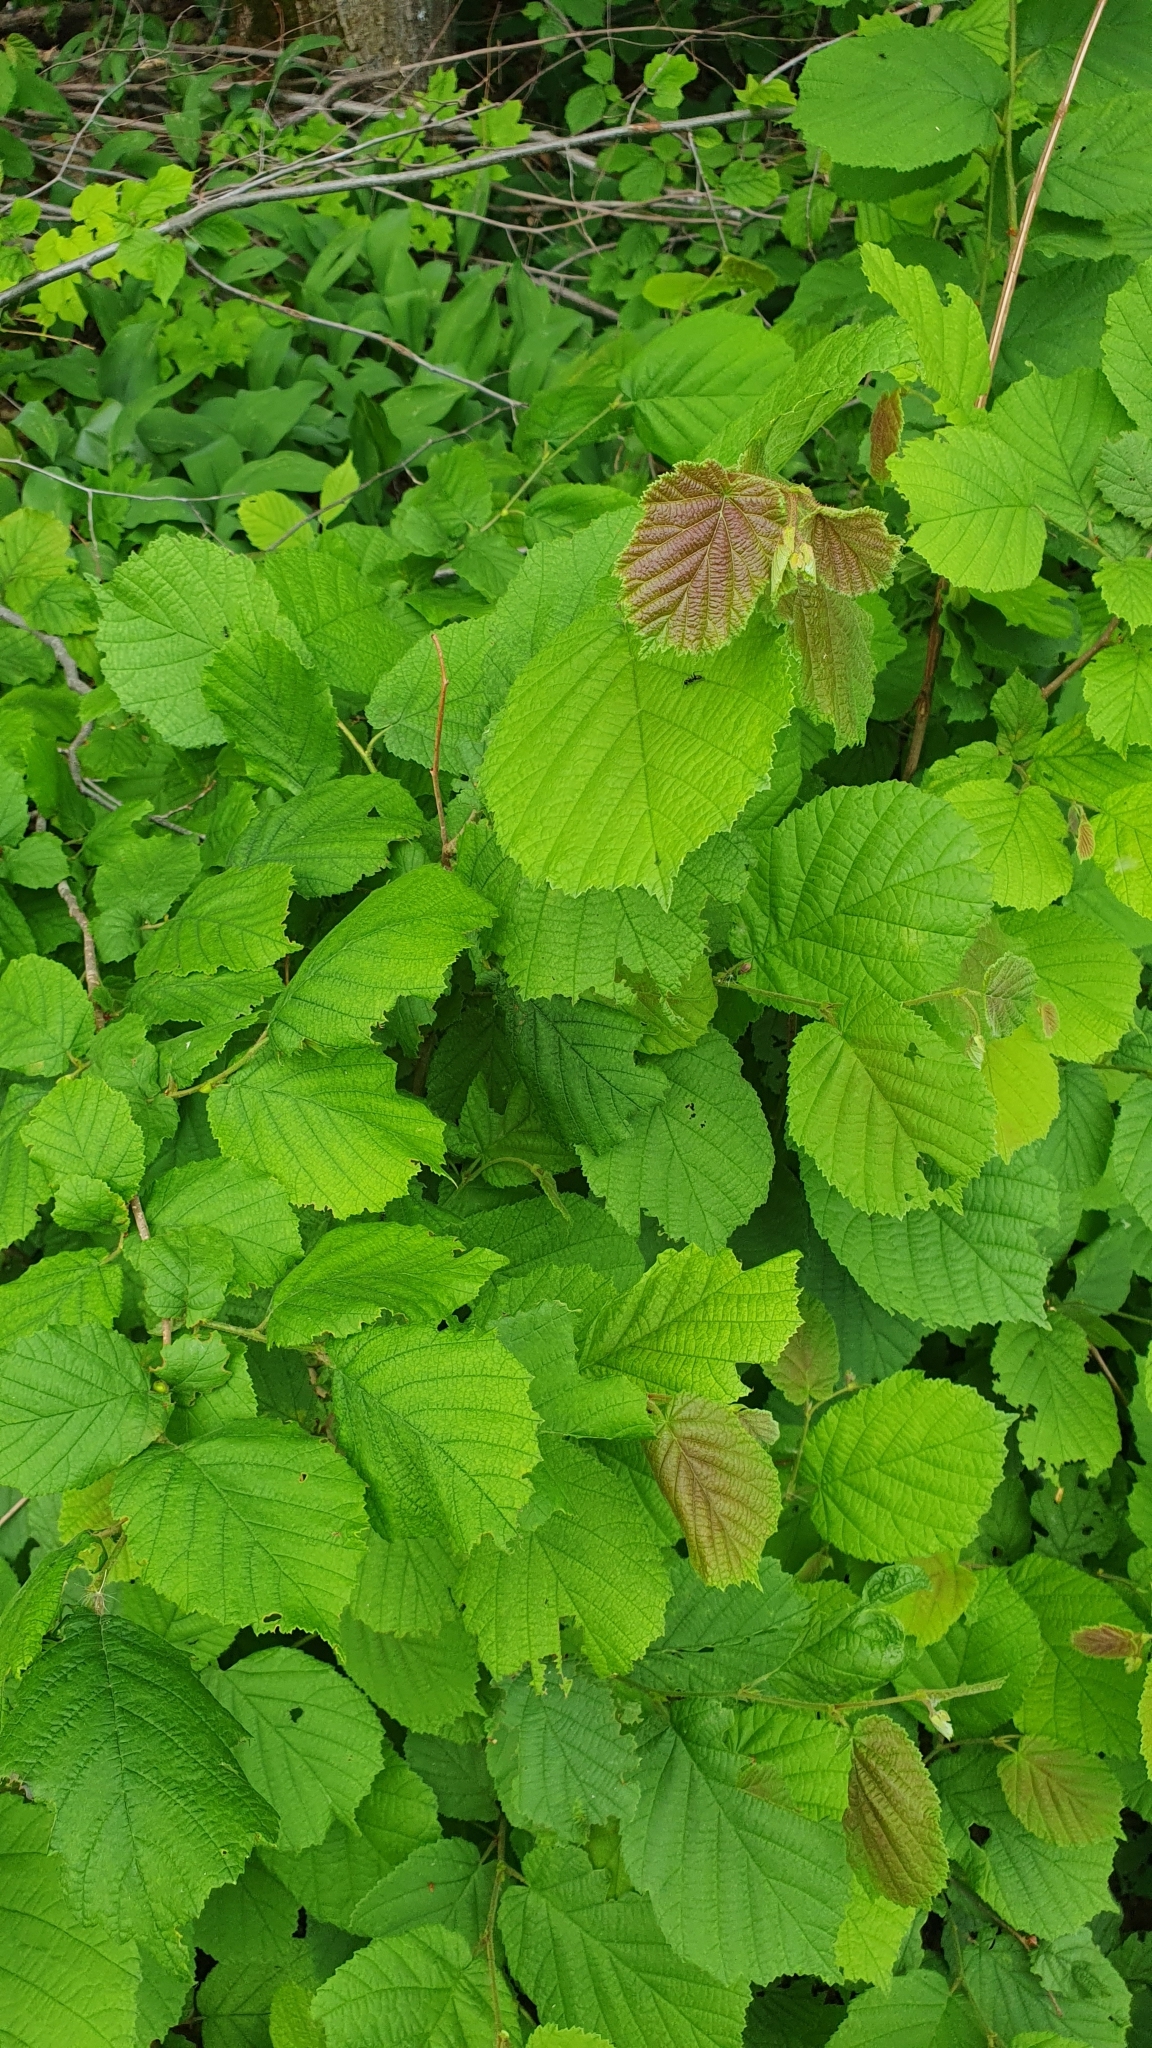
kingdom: Plantae
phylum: Tracheophyta
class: Magnoliopsida
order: Fagales
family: Betulaceae
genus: Corylus
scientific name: Corylus avellana
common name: European hazel
